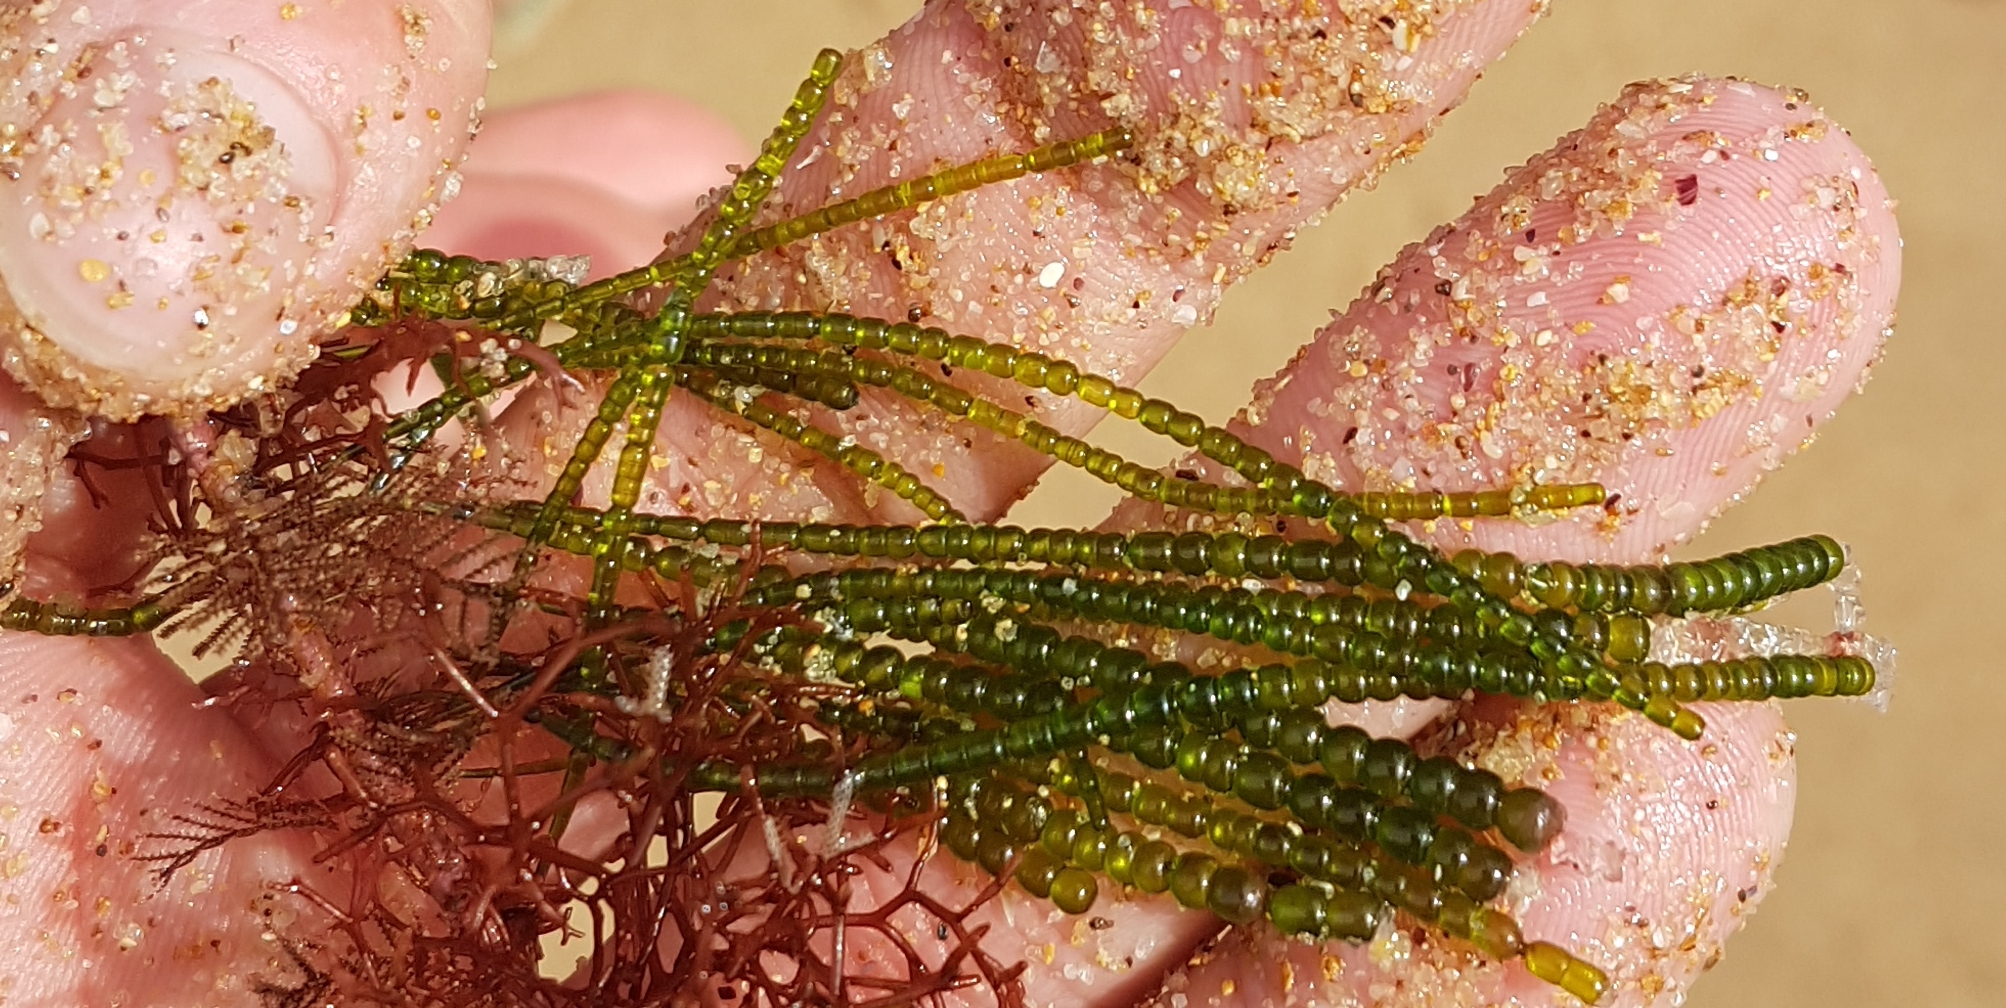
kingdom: Plantae
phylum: Chlorophyta
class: Ulvophyceae
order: Cladophorales
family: Cladophoraceae
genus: Chaetomorpha
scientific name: Chaetomorpha coliformis
